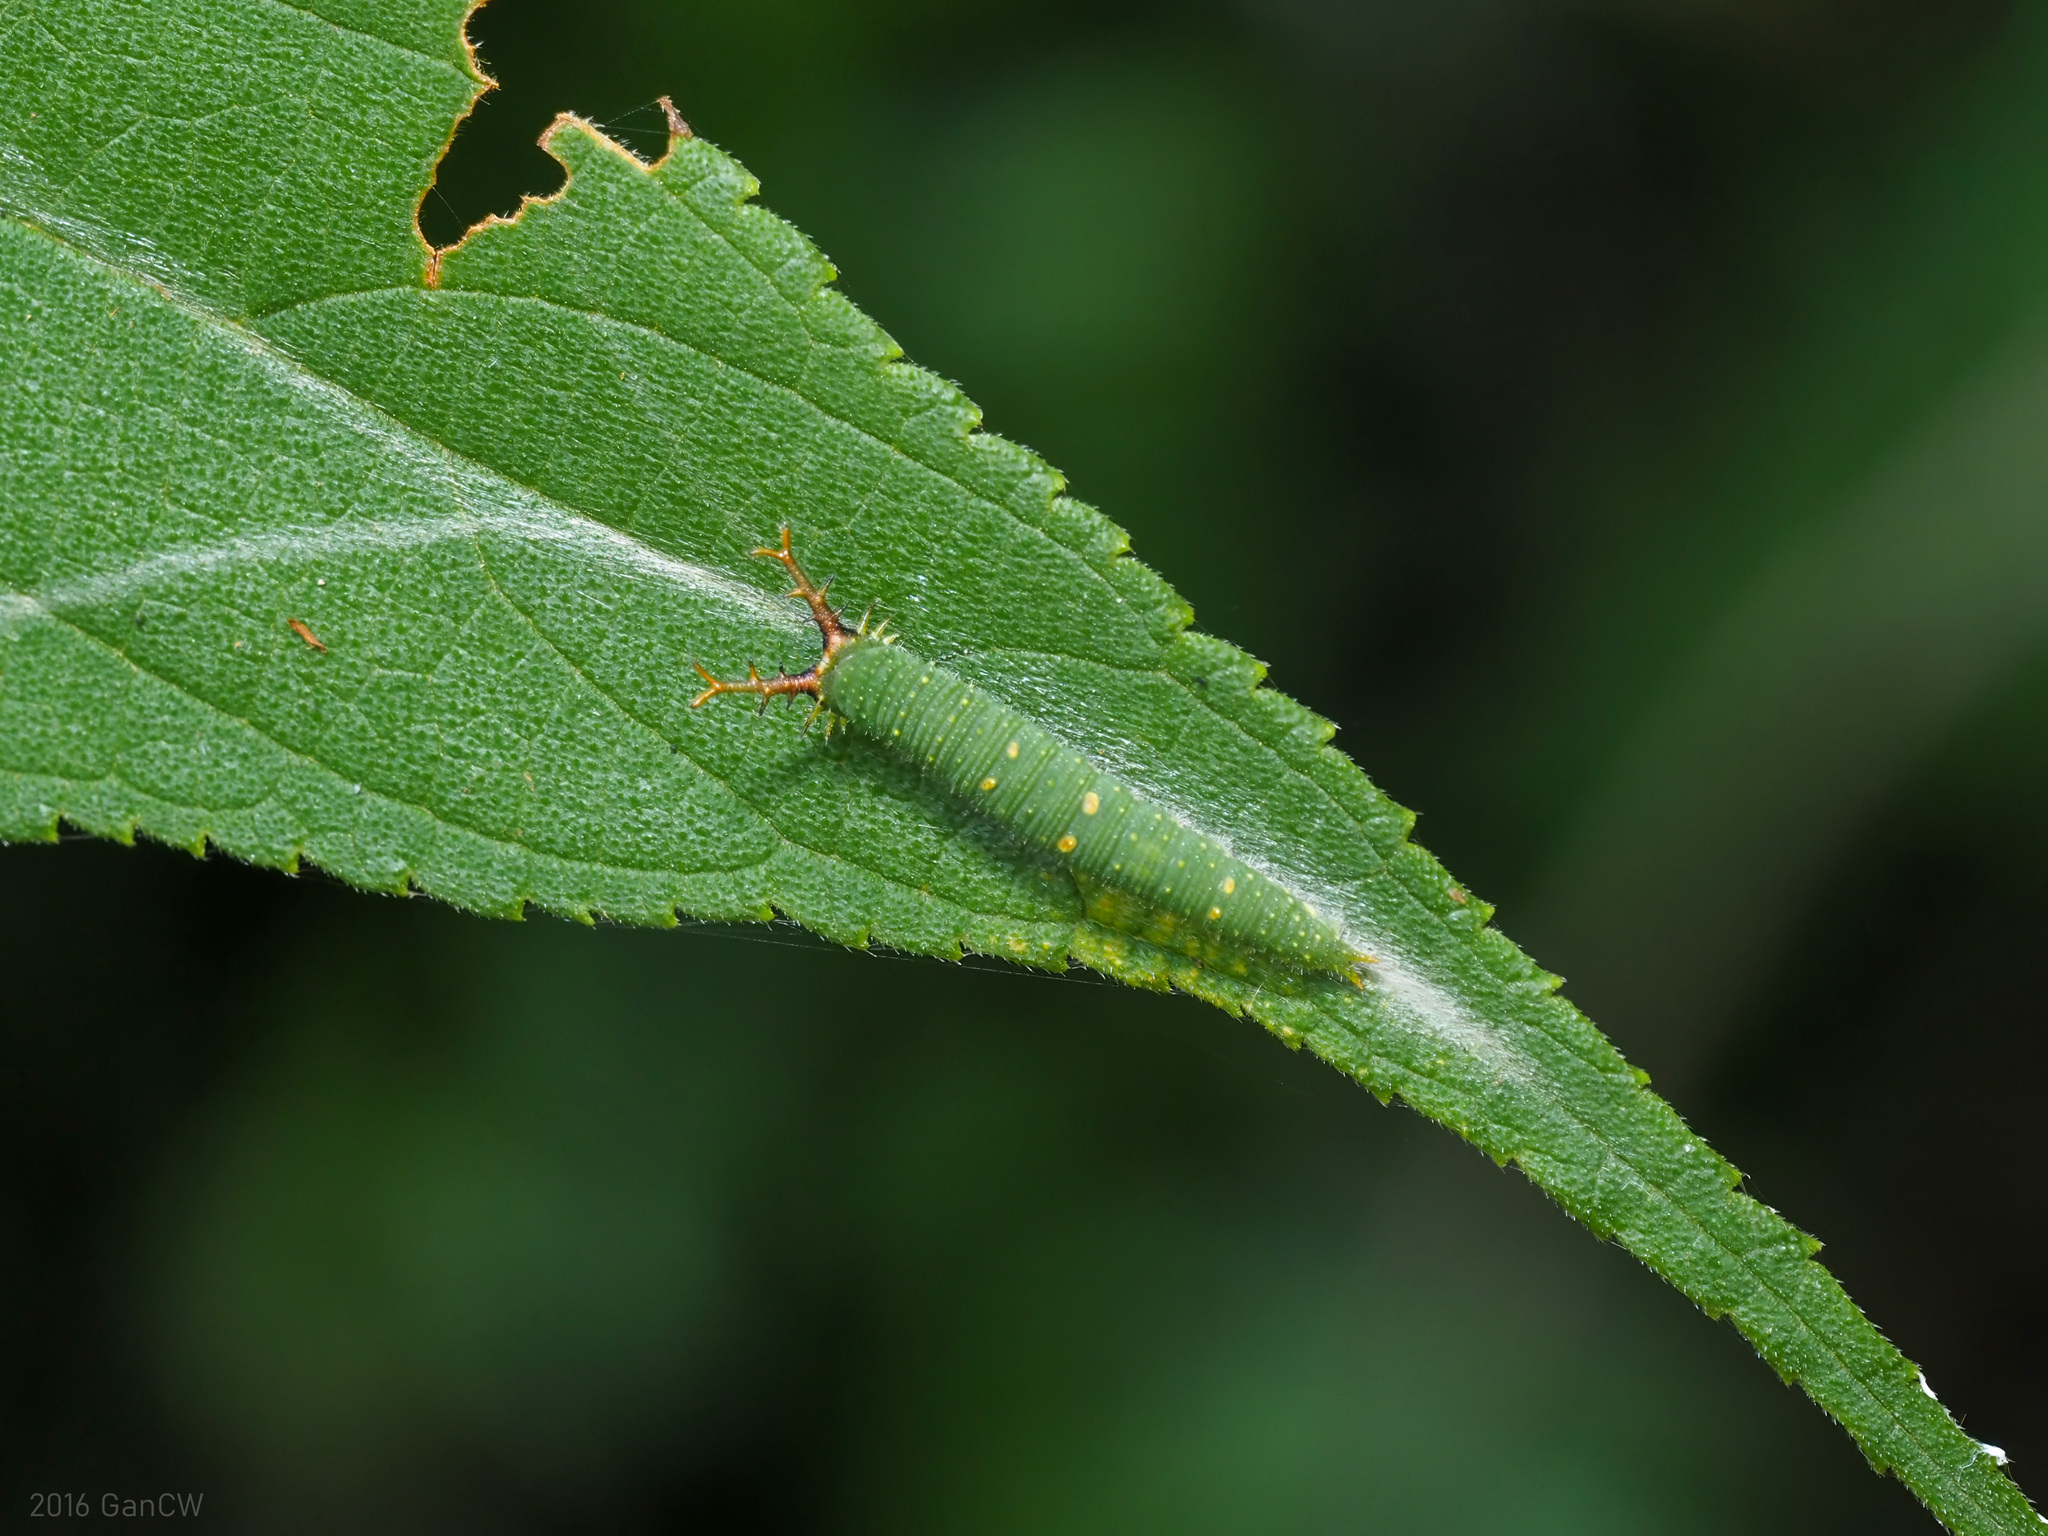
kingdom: Animalia
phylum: Arthropoda
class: Insecta
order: Lepidoptera
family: Nymphalidae
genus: Euripus
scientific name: Euripus nyctelius
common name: Courtesan
